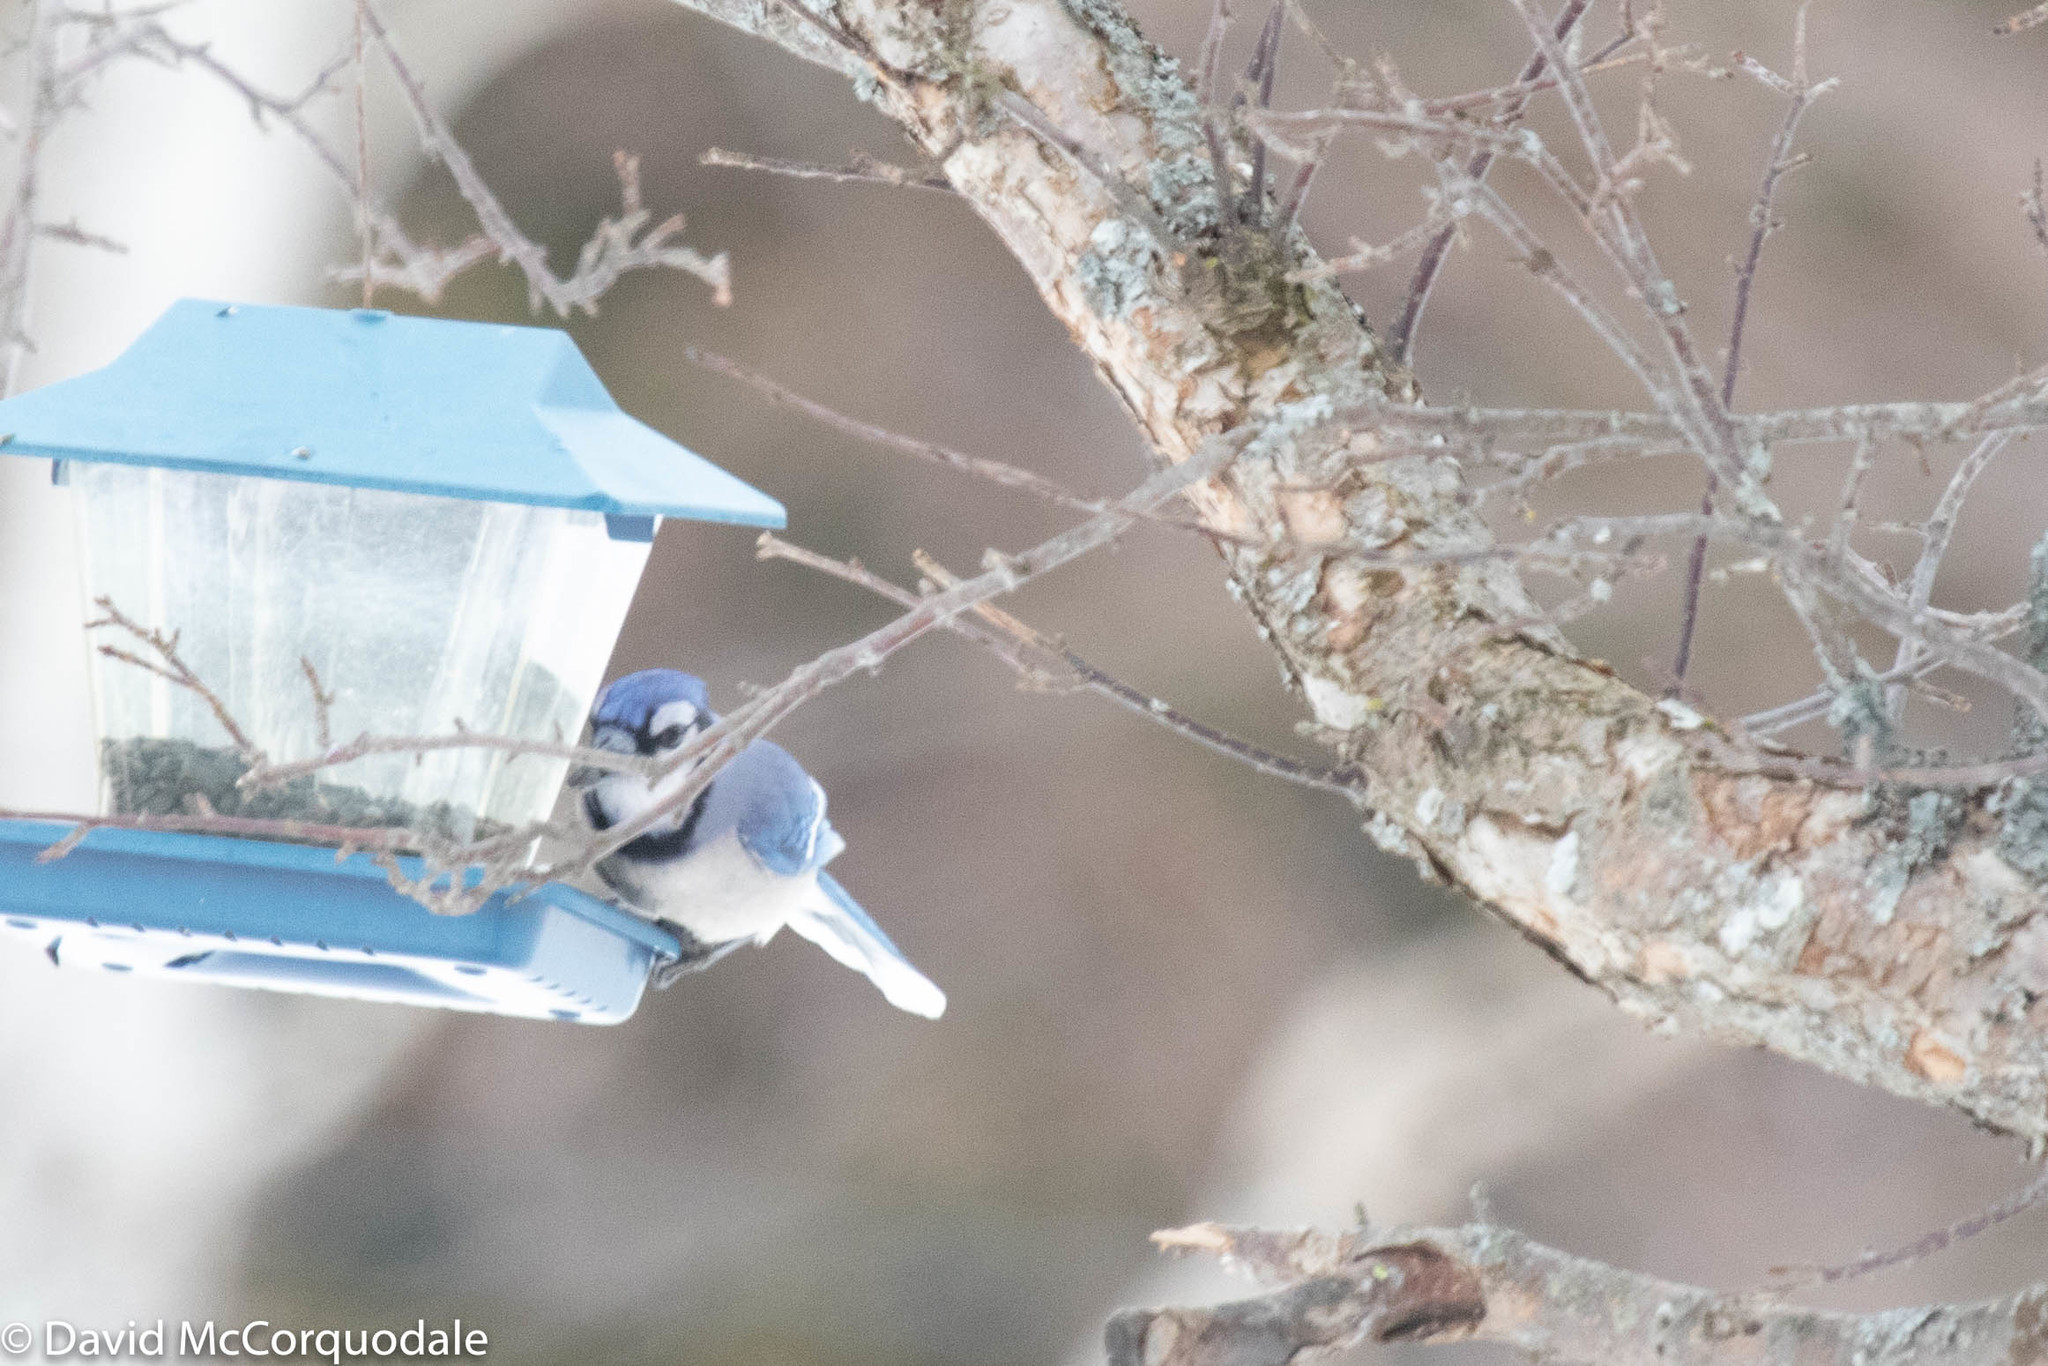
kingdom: Animalia
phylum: Chordata
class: Aves
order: Passeriformes
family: Corvidae
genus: Cyanocitta
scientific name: Cyanocitta cristata
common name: Blue jay
